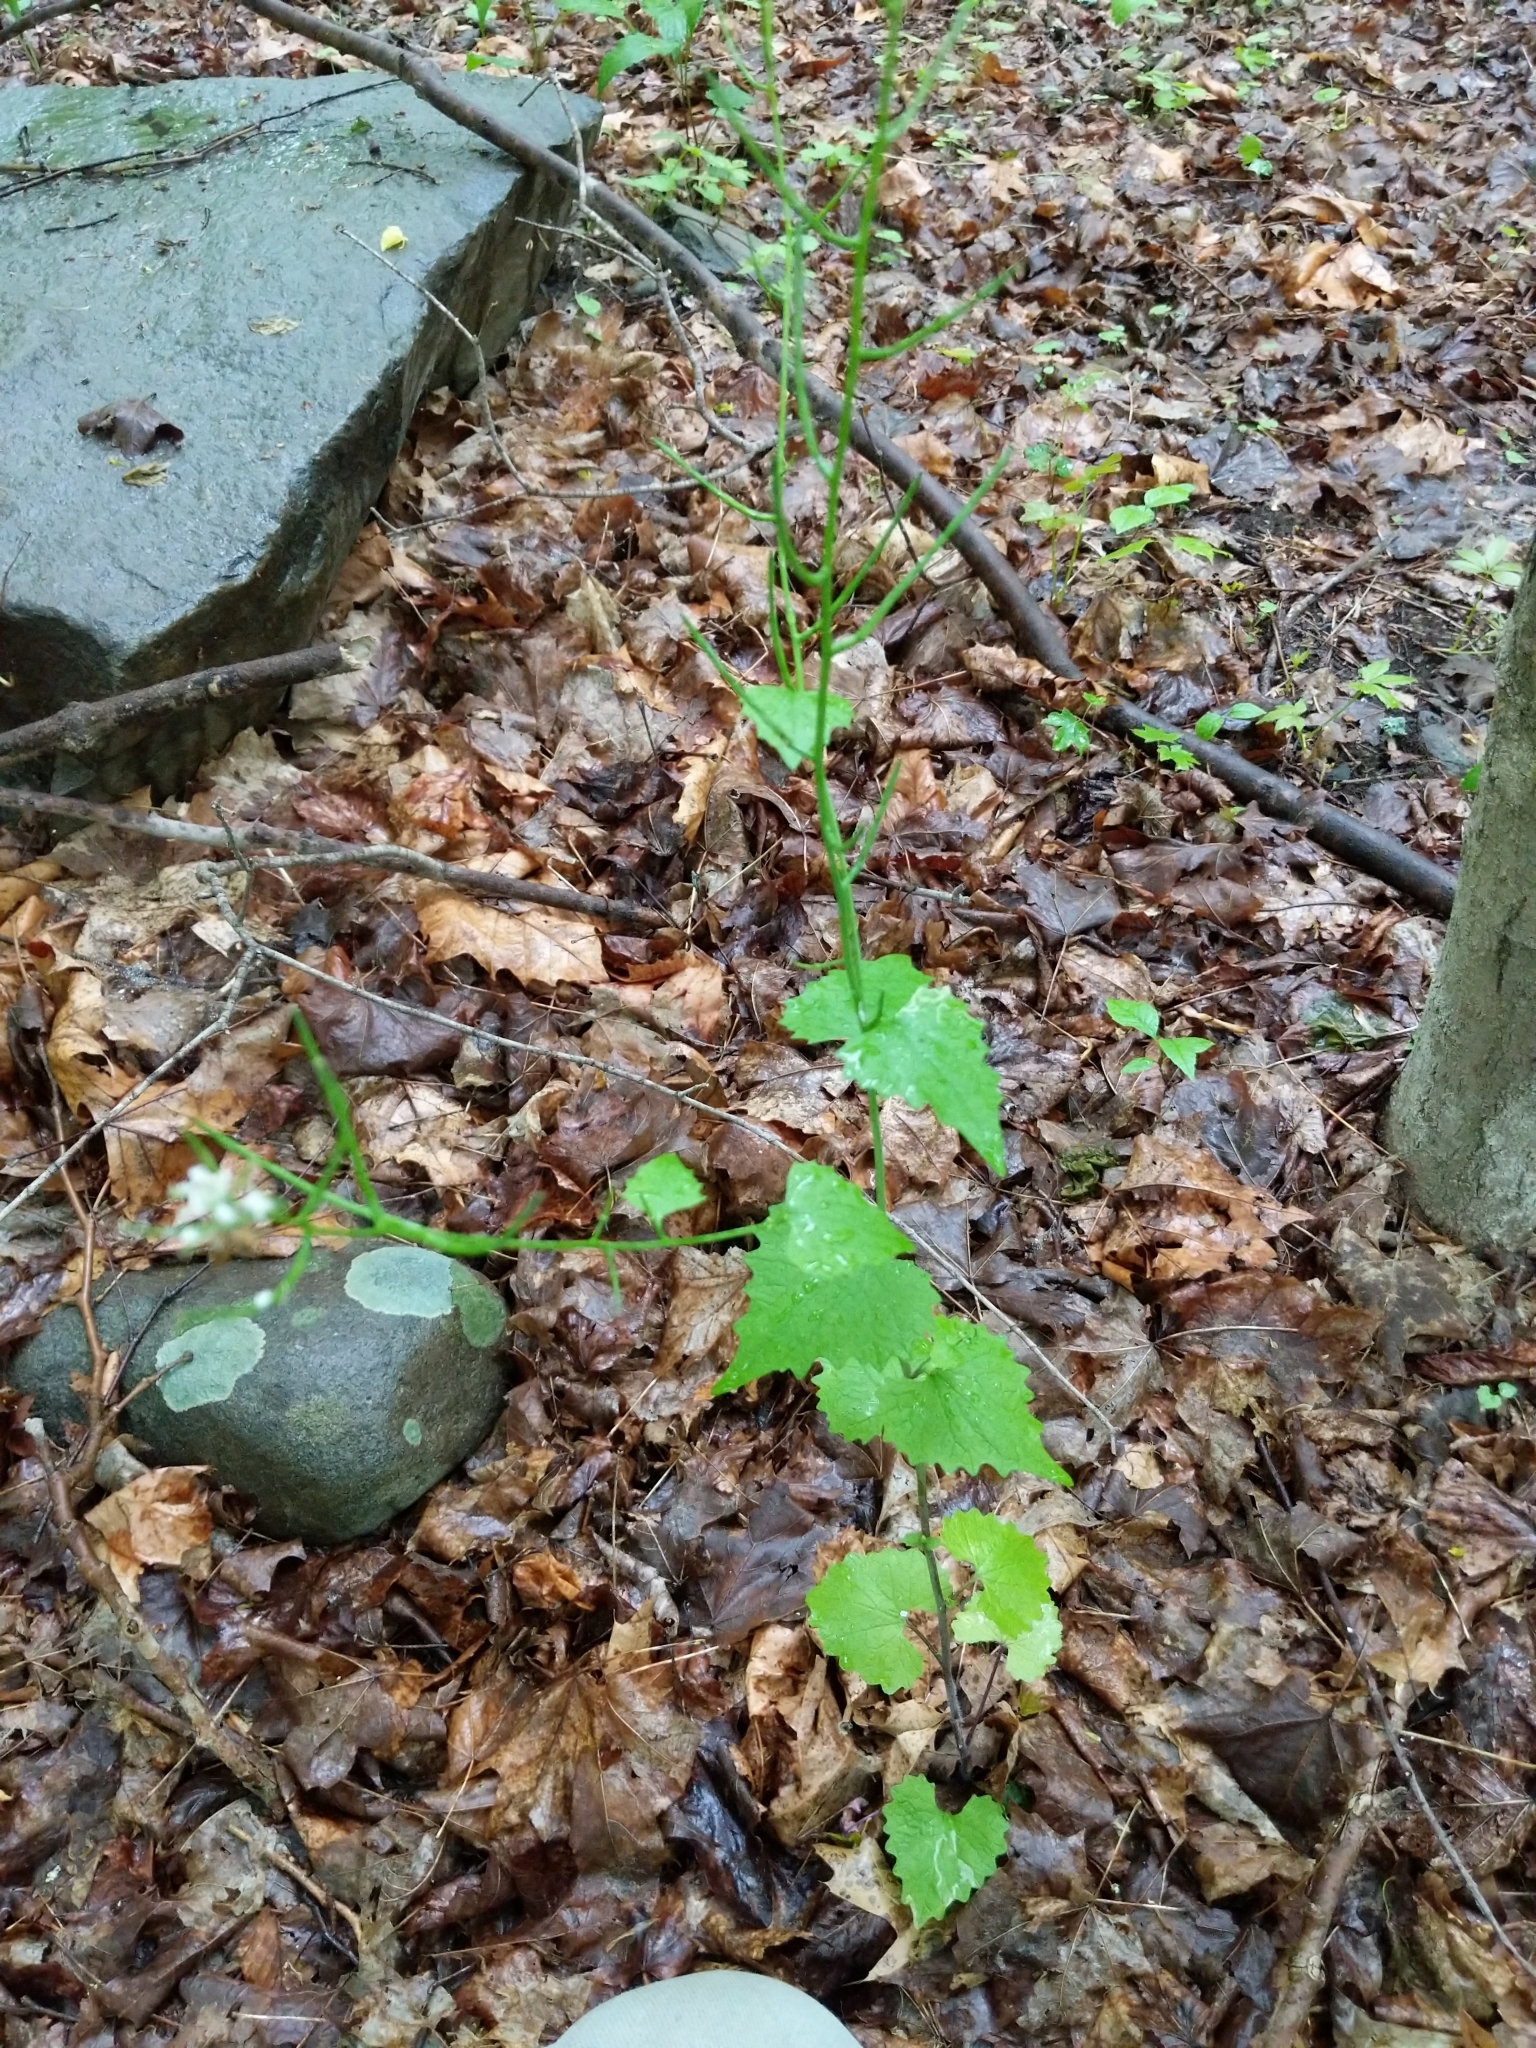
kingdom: Plantae
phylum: Tracheophyta
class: Magnoliopsida
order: Brassicales
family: Brassicaceae
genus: Alliaria
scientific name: Alliaria petiolata
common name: Garlic mustard
